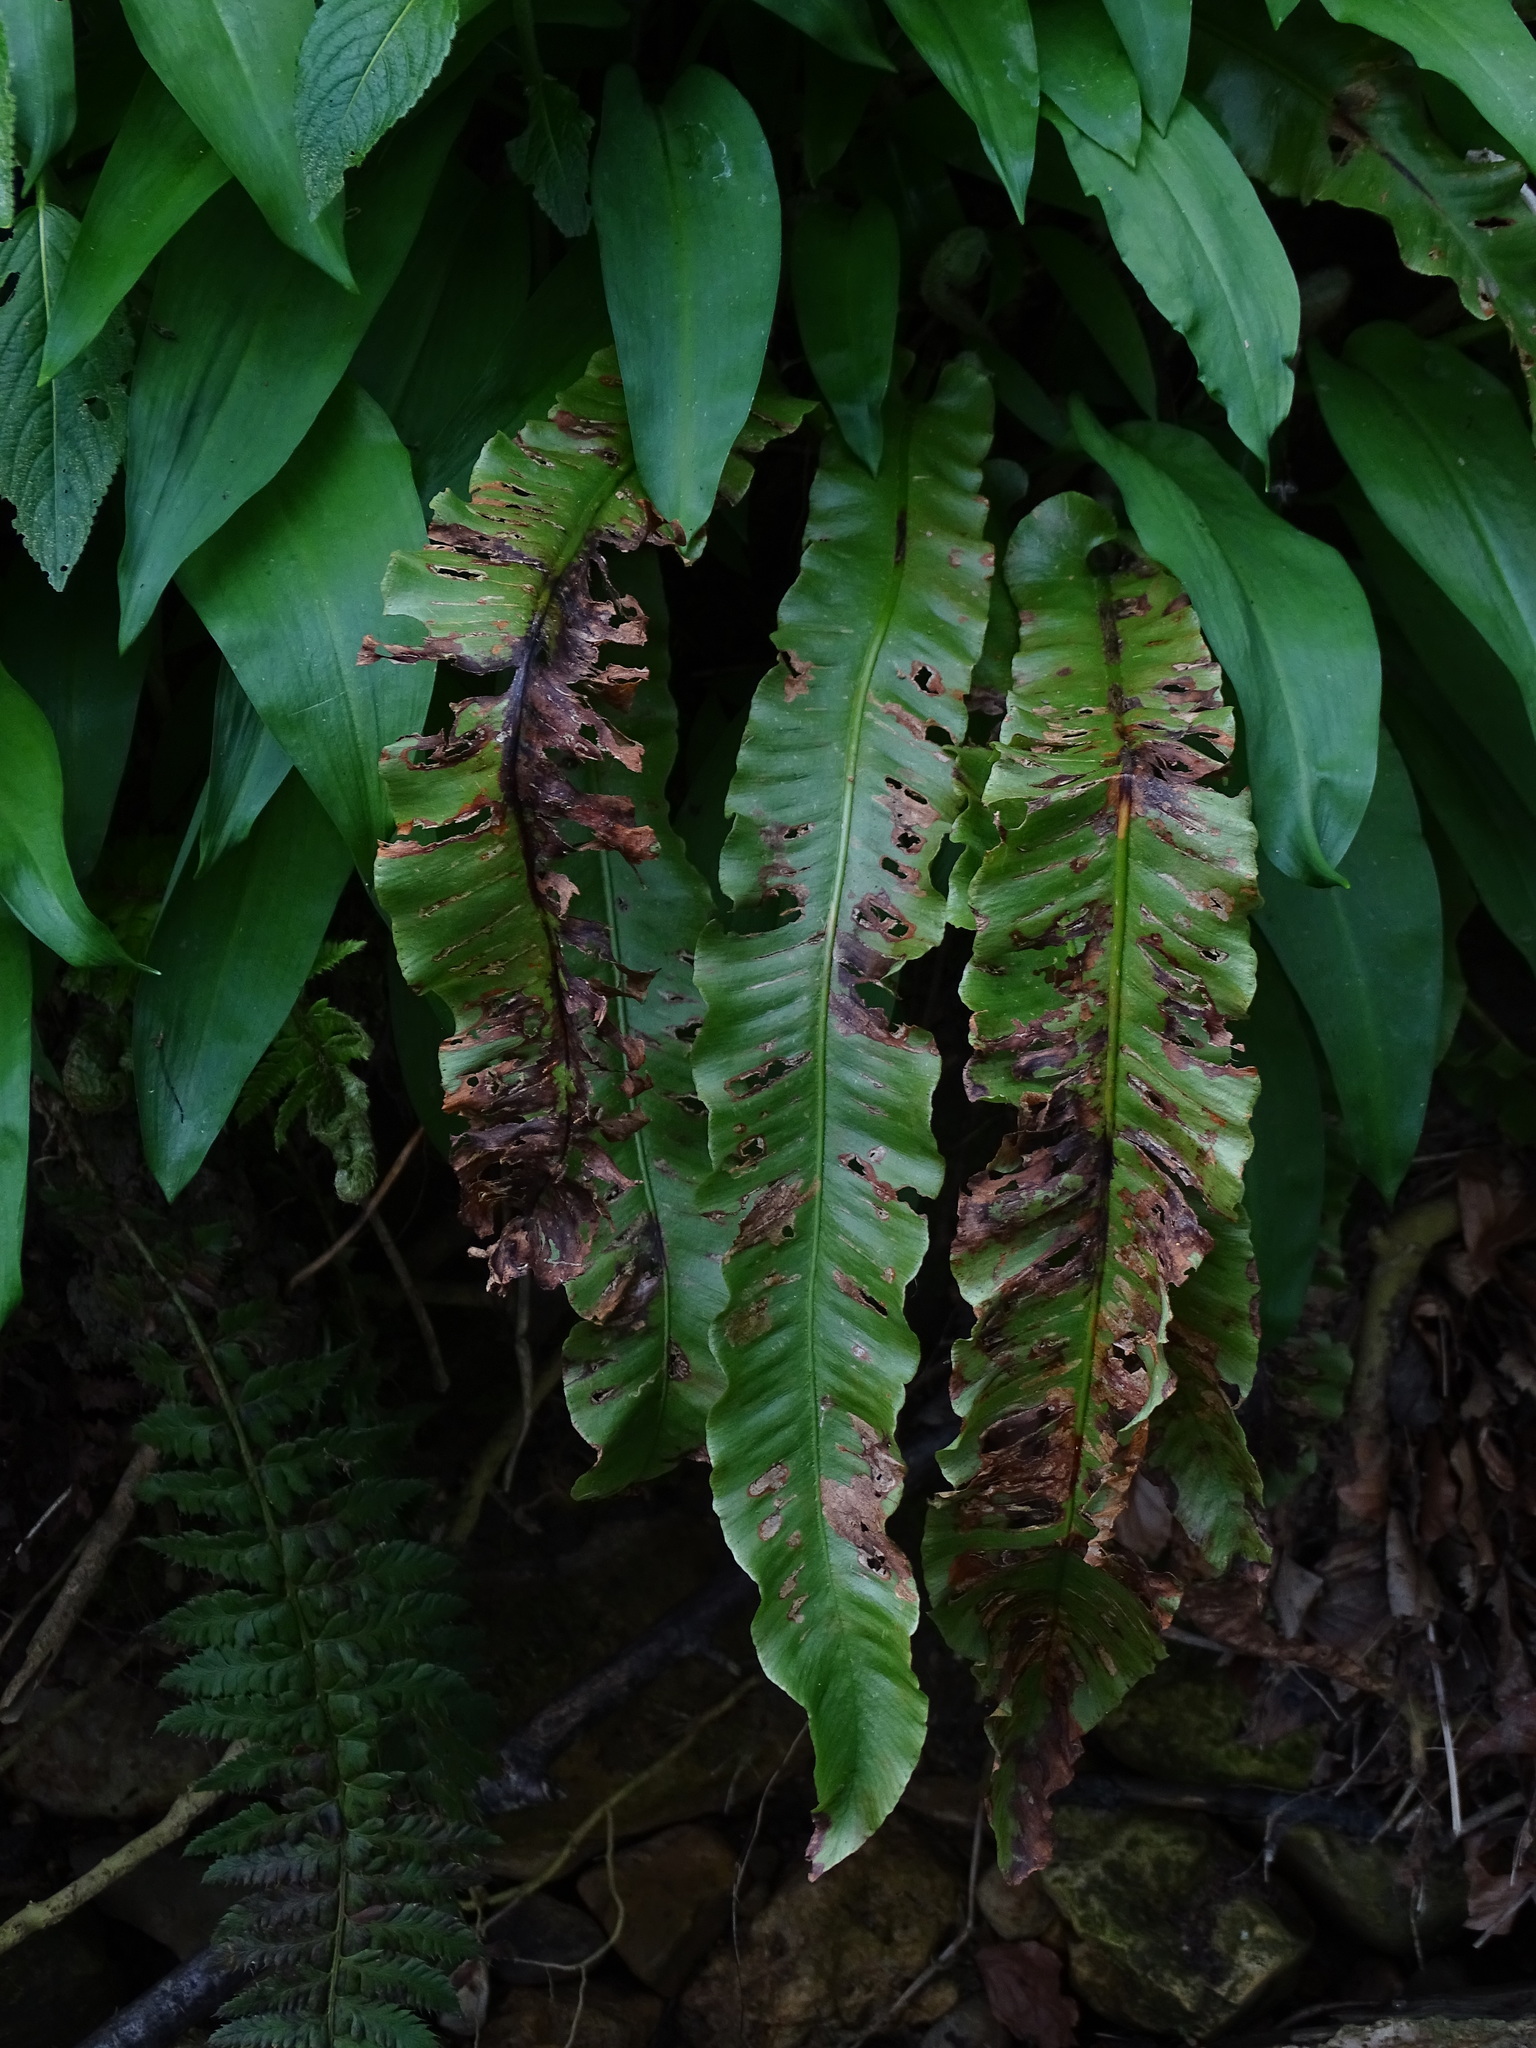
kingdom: Plantae
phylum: Tracheophyta
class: Polypodiopsida
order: Polypodiales
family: Aspleniaceae
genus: Asplenium
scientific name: Asplenium scolopendrium
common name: Hart's-tongue fern
